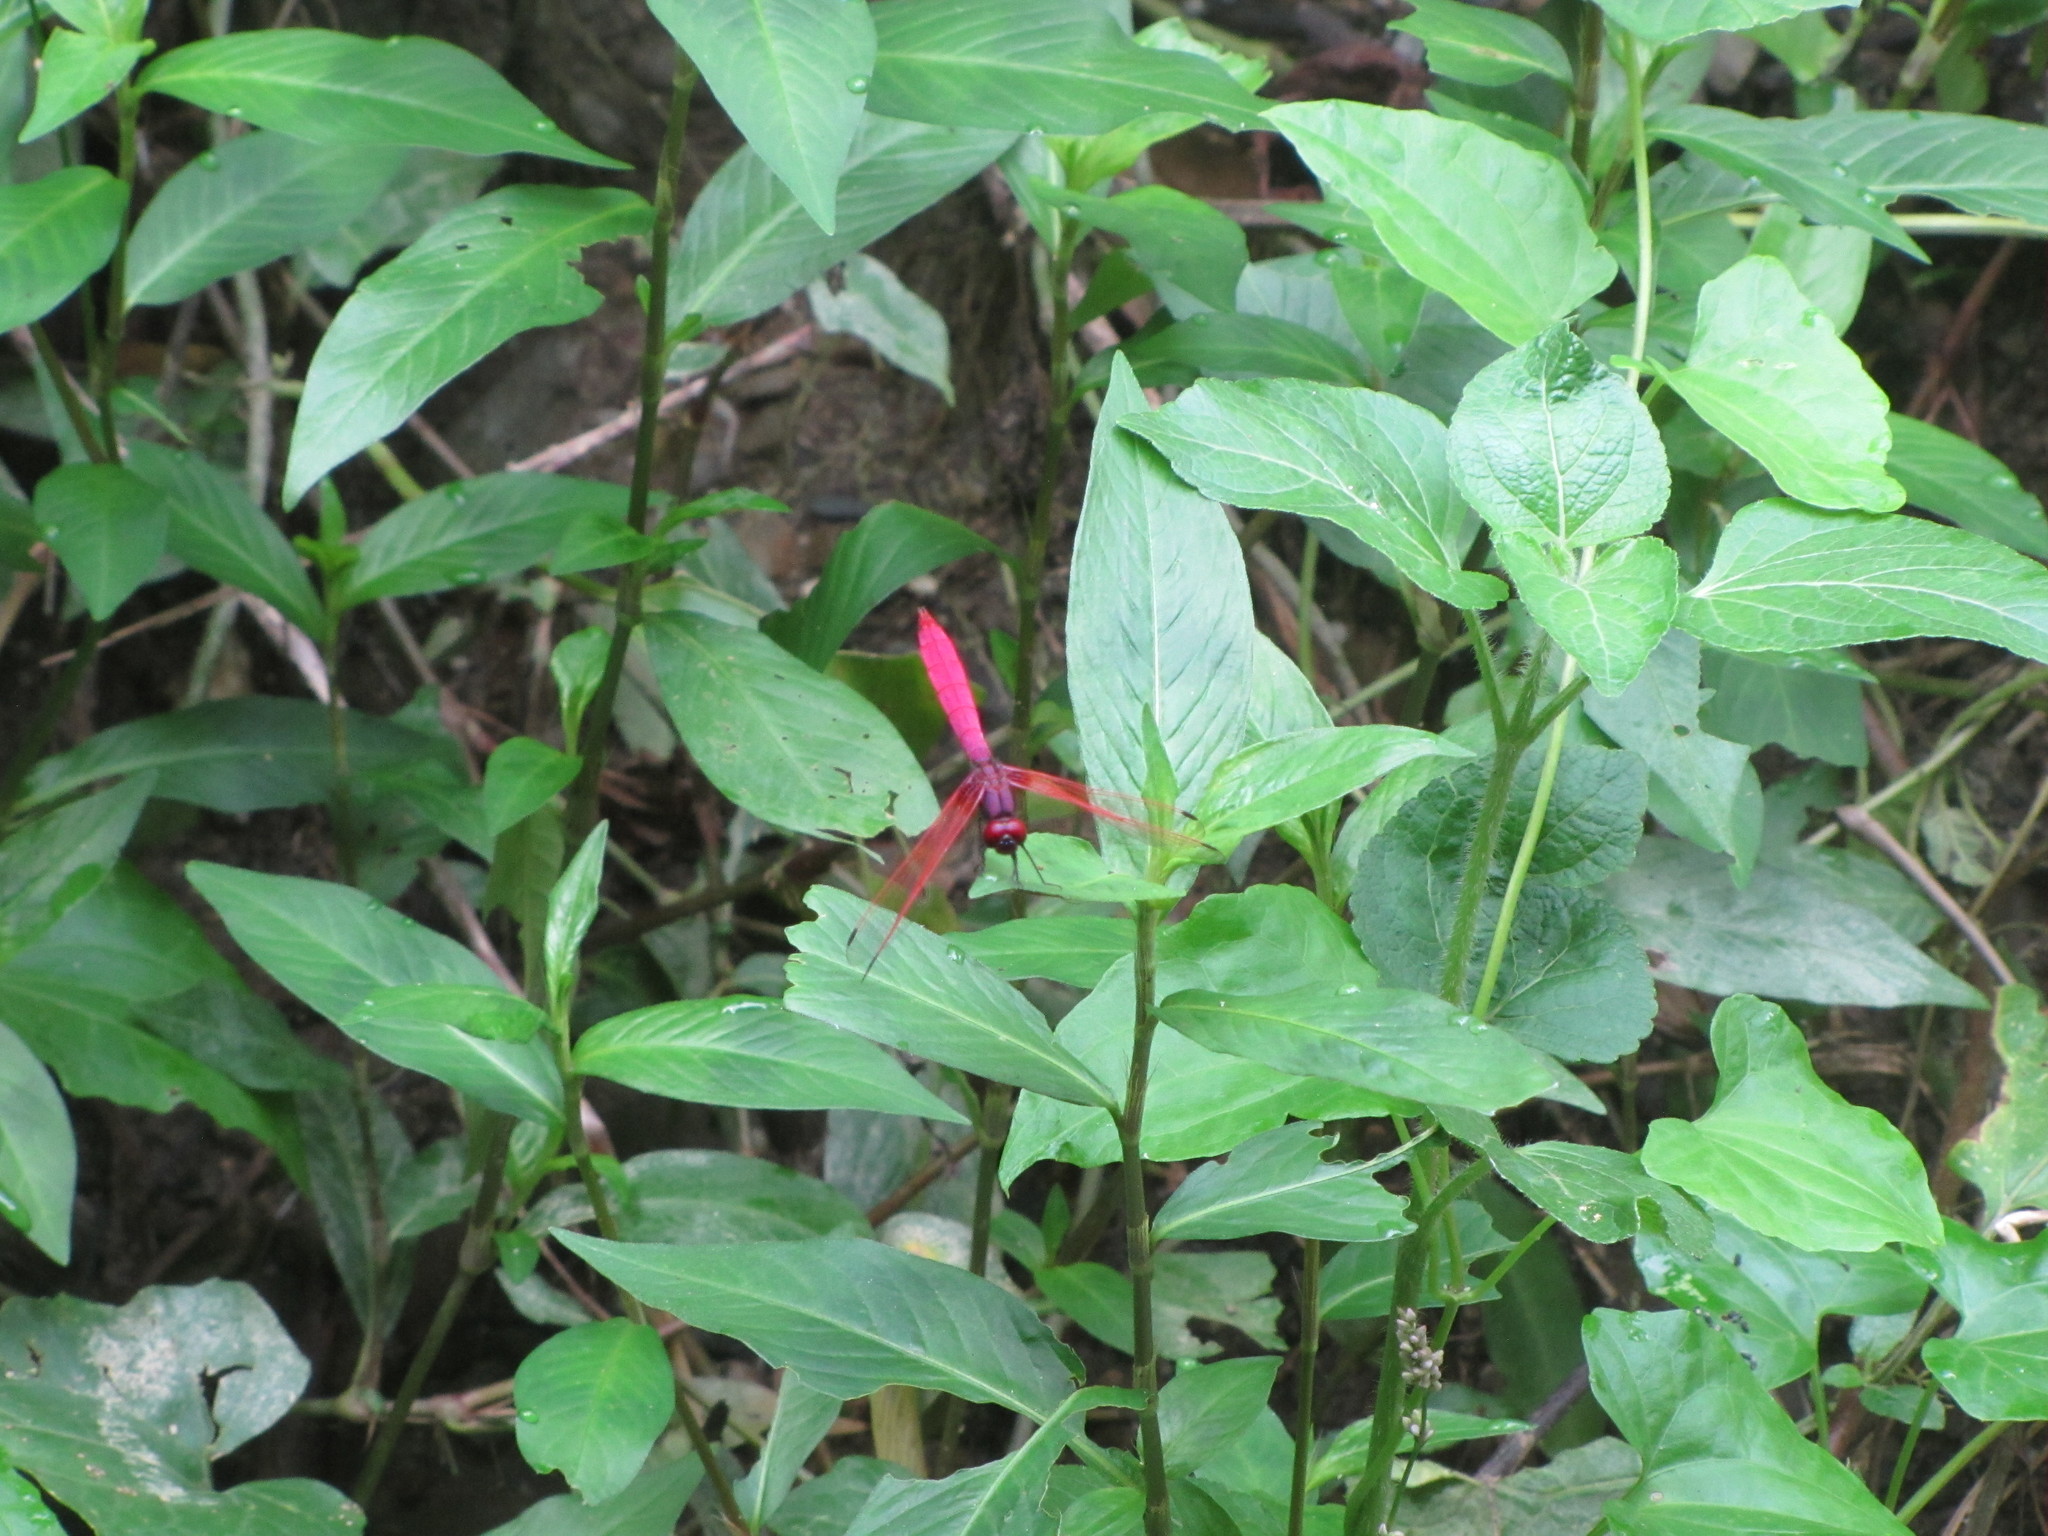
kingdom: Animalia
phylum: Arthropoda
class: Insecta
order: Odonata
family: Libellulidae
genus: Trithemis
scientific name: Trithemis aurora
